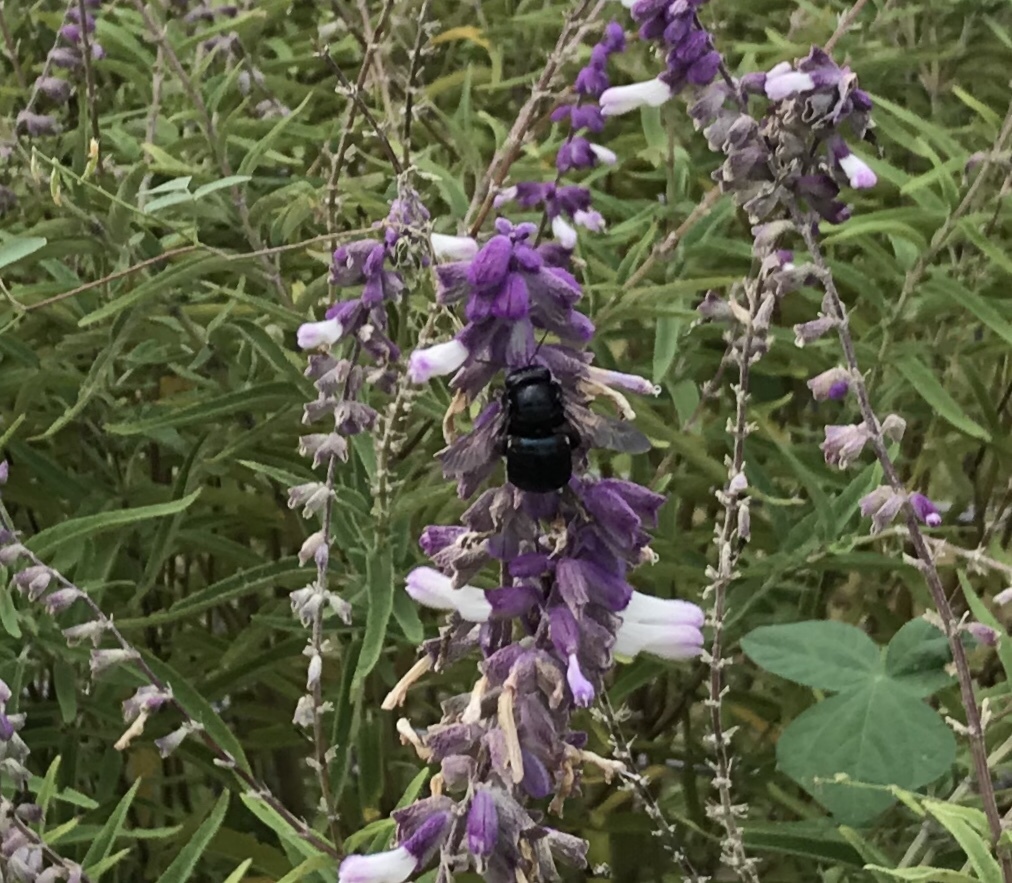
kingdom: Animalia
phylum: Arthropoda
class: Insecta
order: Hymenoptera
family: Apidae
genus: Xylocopa
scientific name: Xylocopa micans
